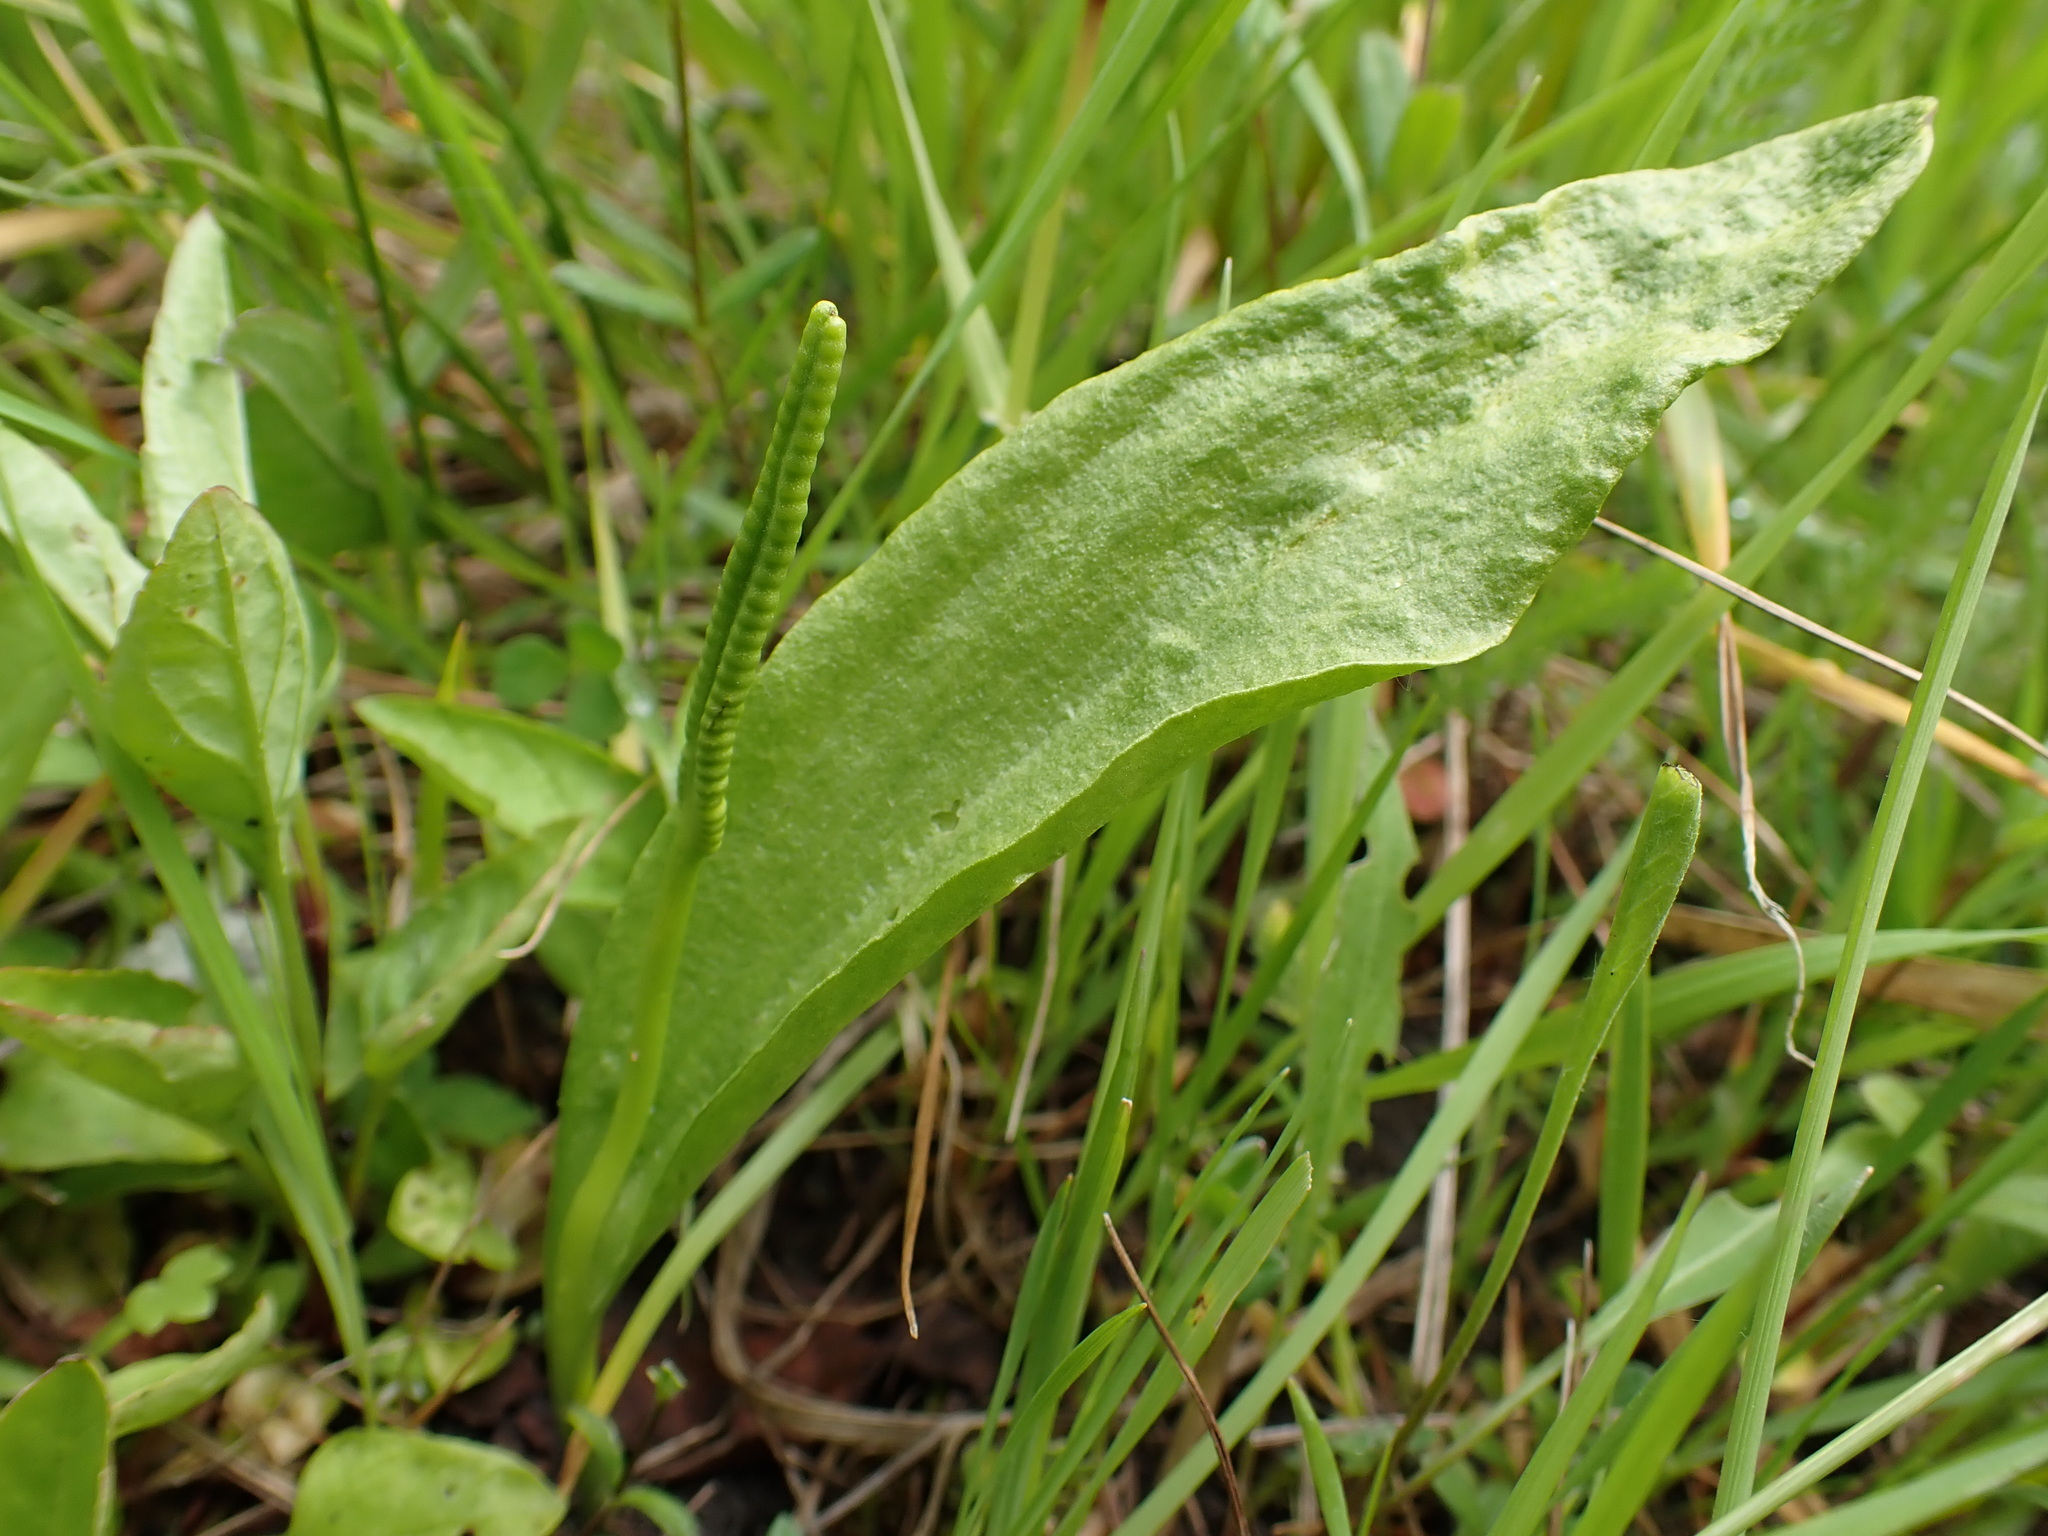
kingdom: Plantae
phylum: Tracheophyta
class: Polypodiopsida
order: Ophioglossales
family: Ophioglossaceae
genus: Ophioglossum
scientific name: Ophioglossum vulgatum
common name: Adder's-tongue
